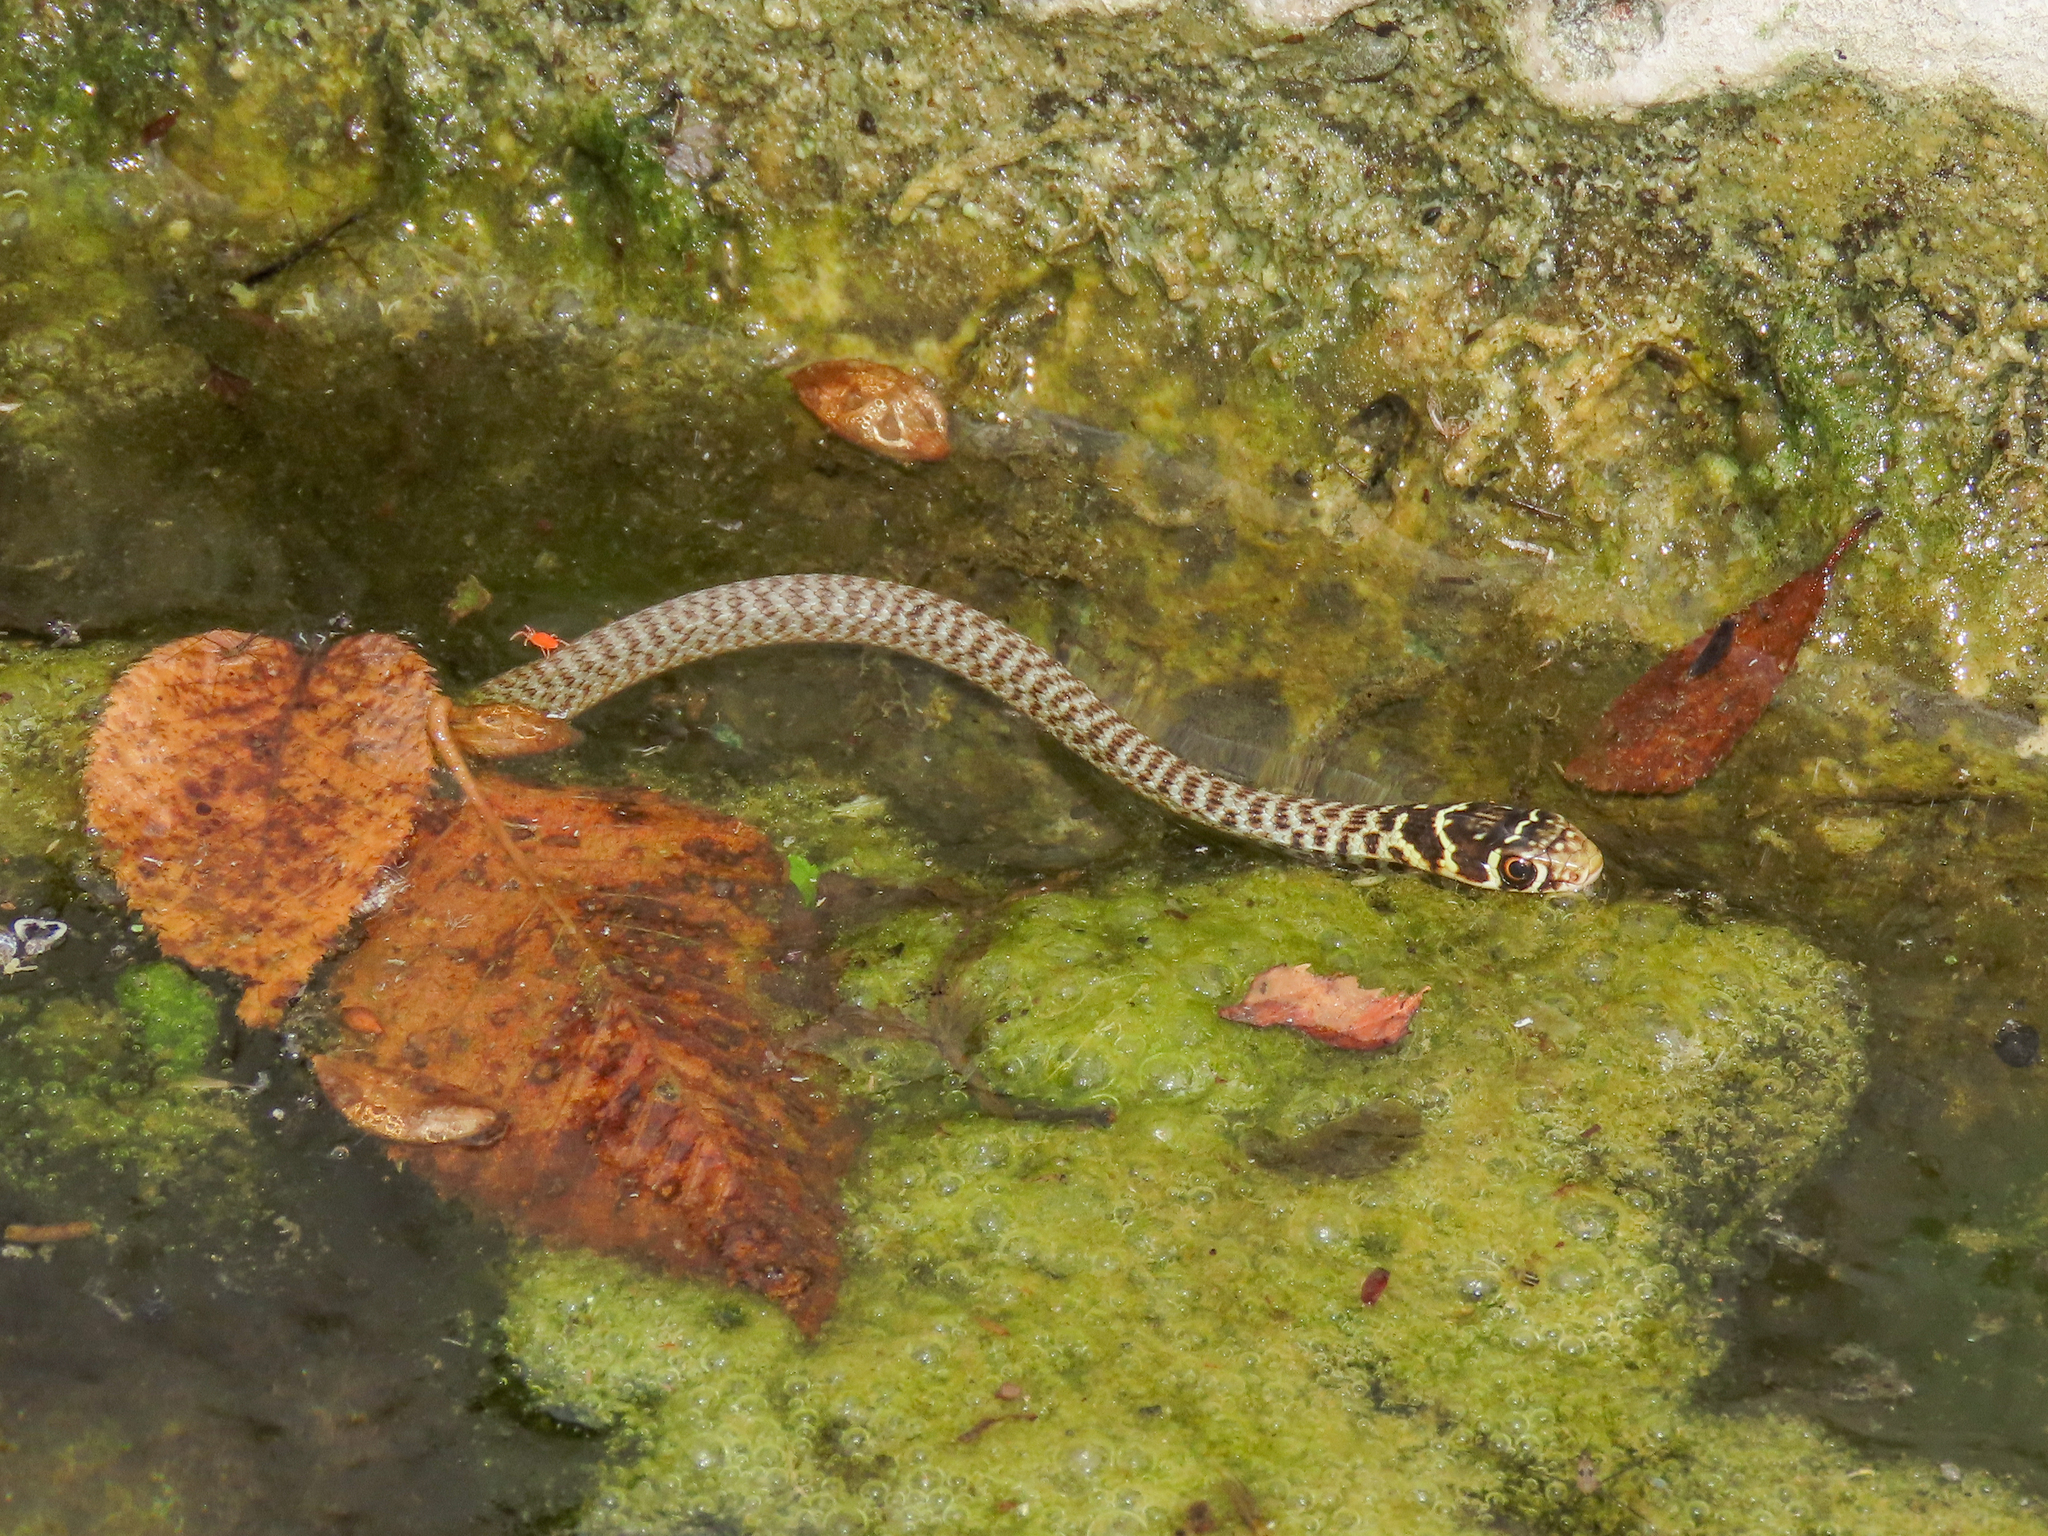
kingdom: Animalia
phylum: Chordata
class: Squamata
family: Colubridae
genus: Hierophis
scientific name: Hierophis viridiflavus
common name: Green whip snake
